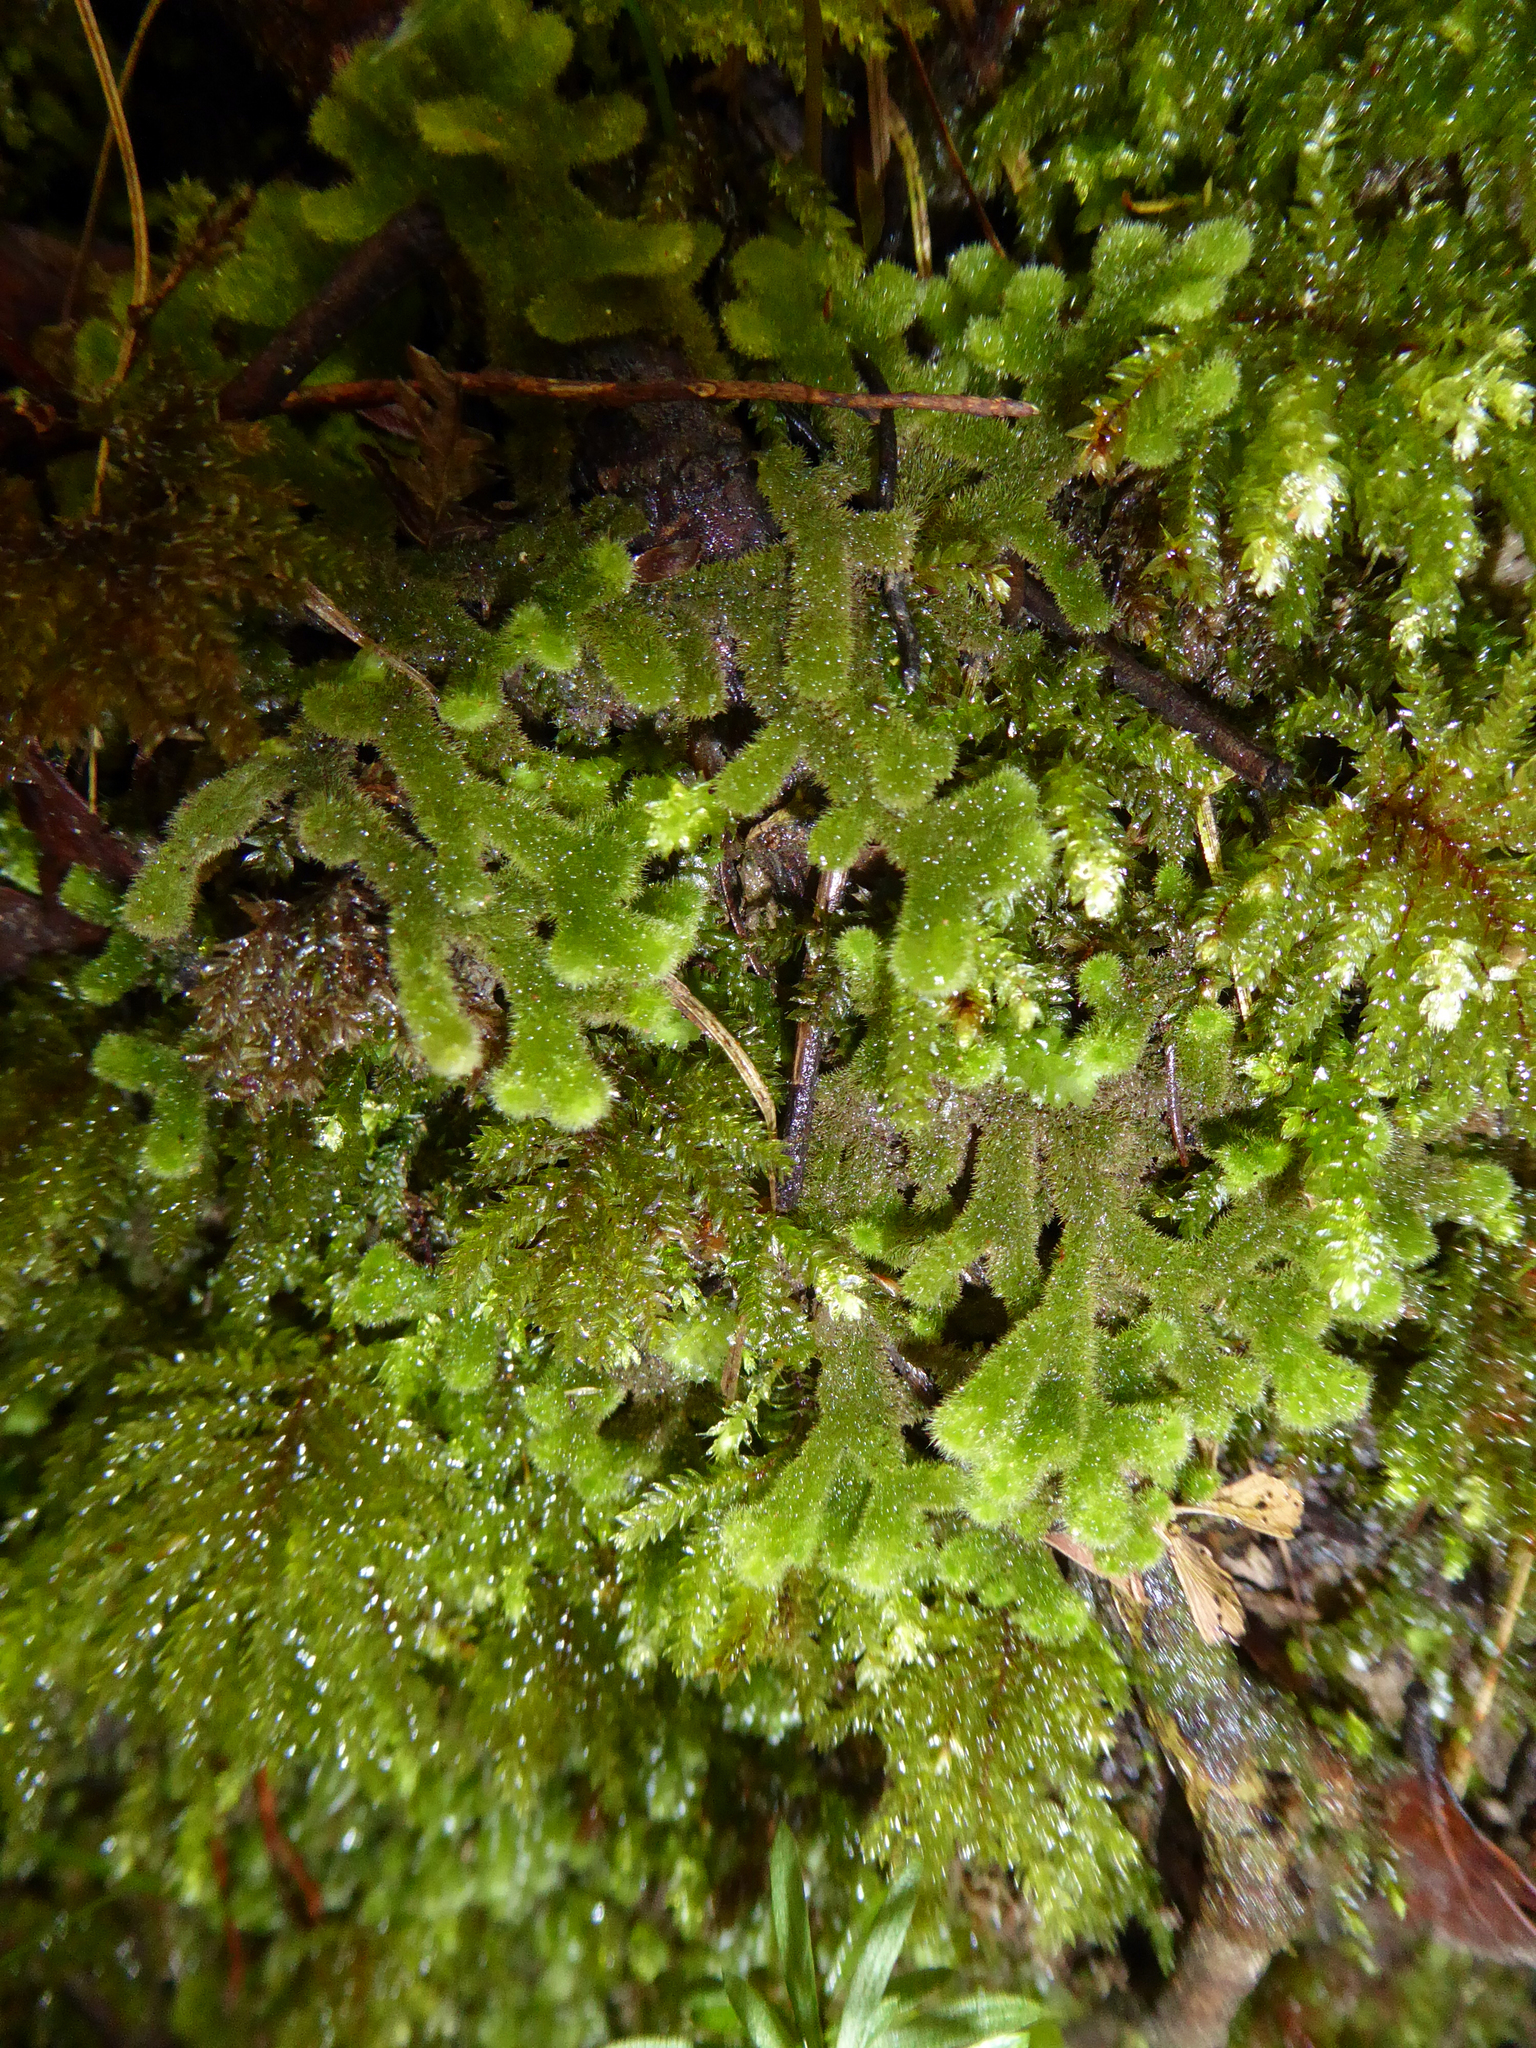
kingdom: Plantae
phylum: Marchantiophyta
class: Jungermanniopsida
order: Jungermanniales
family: Trichocoleaceae
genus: Leiomitra
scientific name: Leiomitra lanata
